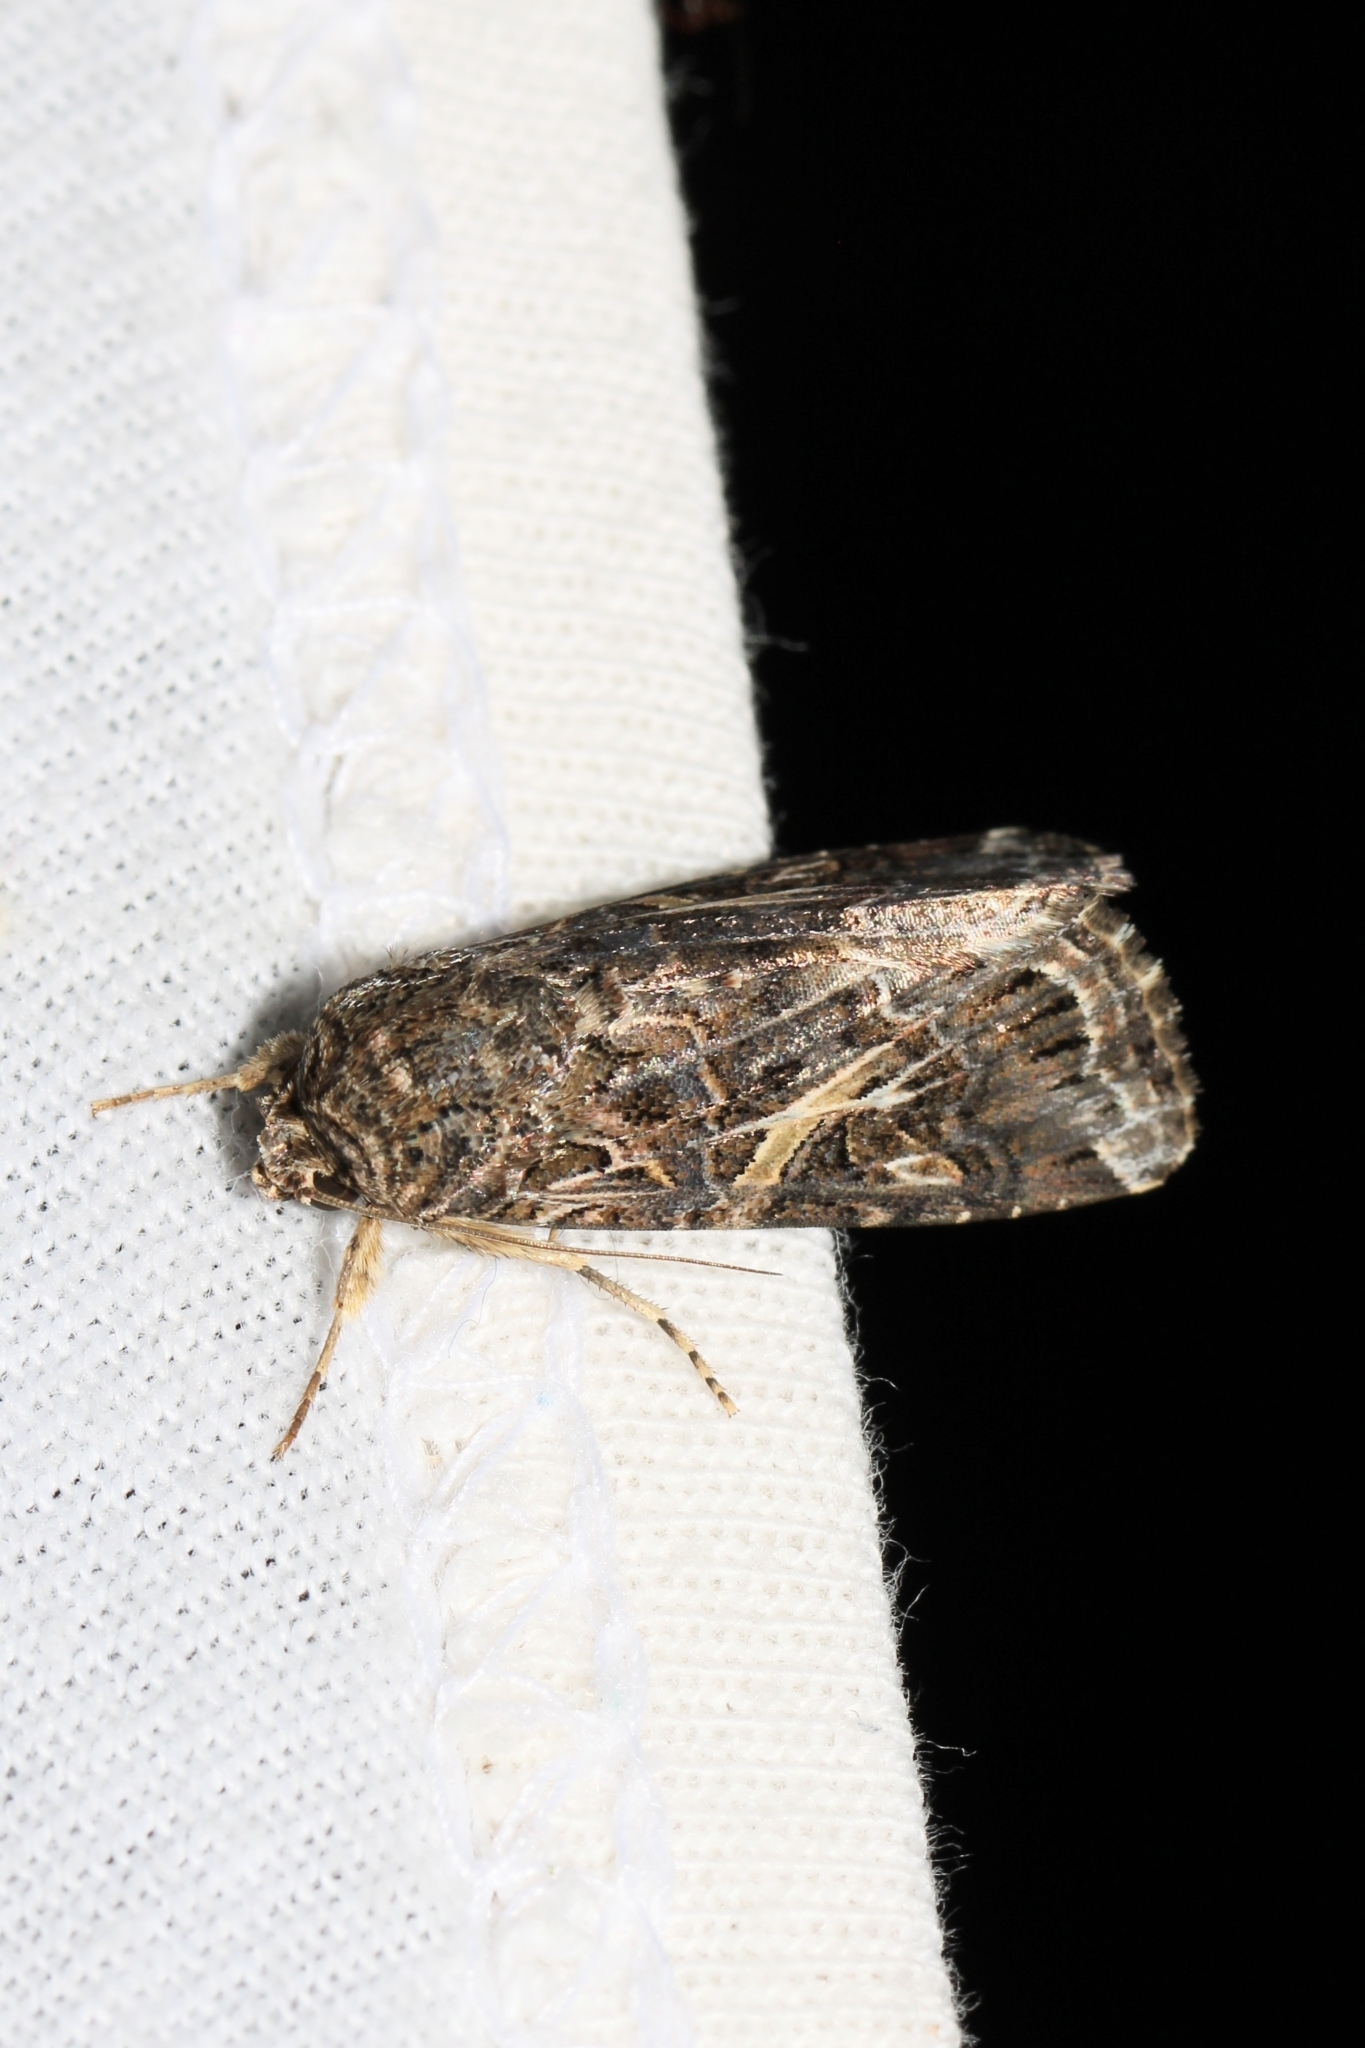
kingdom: Animalia
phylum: Arthropoda
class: Insecta
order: Lepidoptera
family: Noctuidae
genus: Spodoptera
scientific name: Spodoptera ornithogalli
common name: Yellow-striped armyworm
